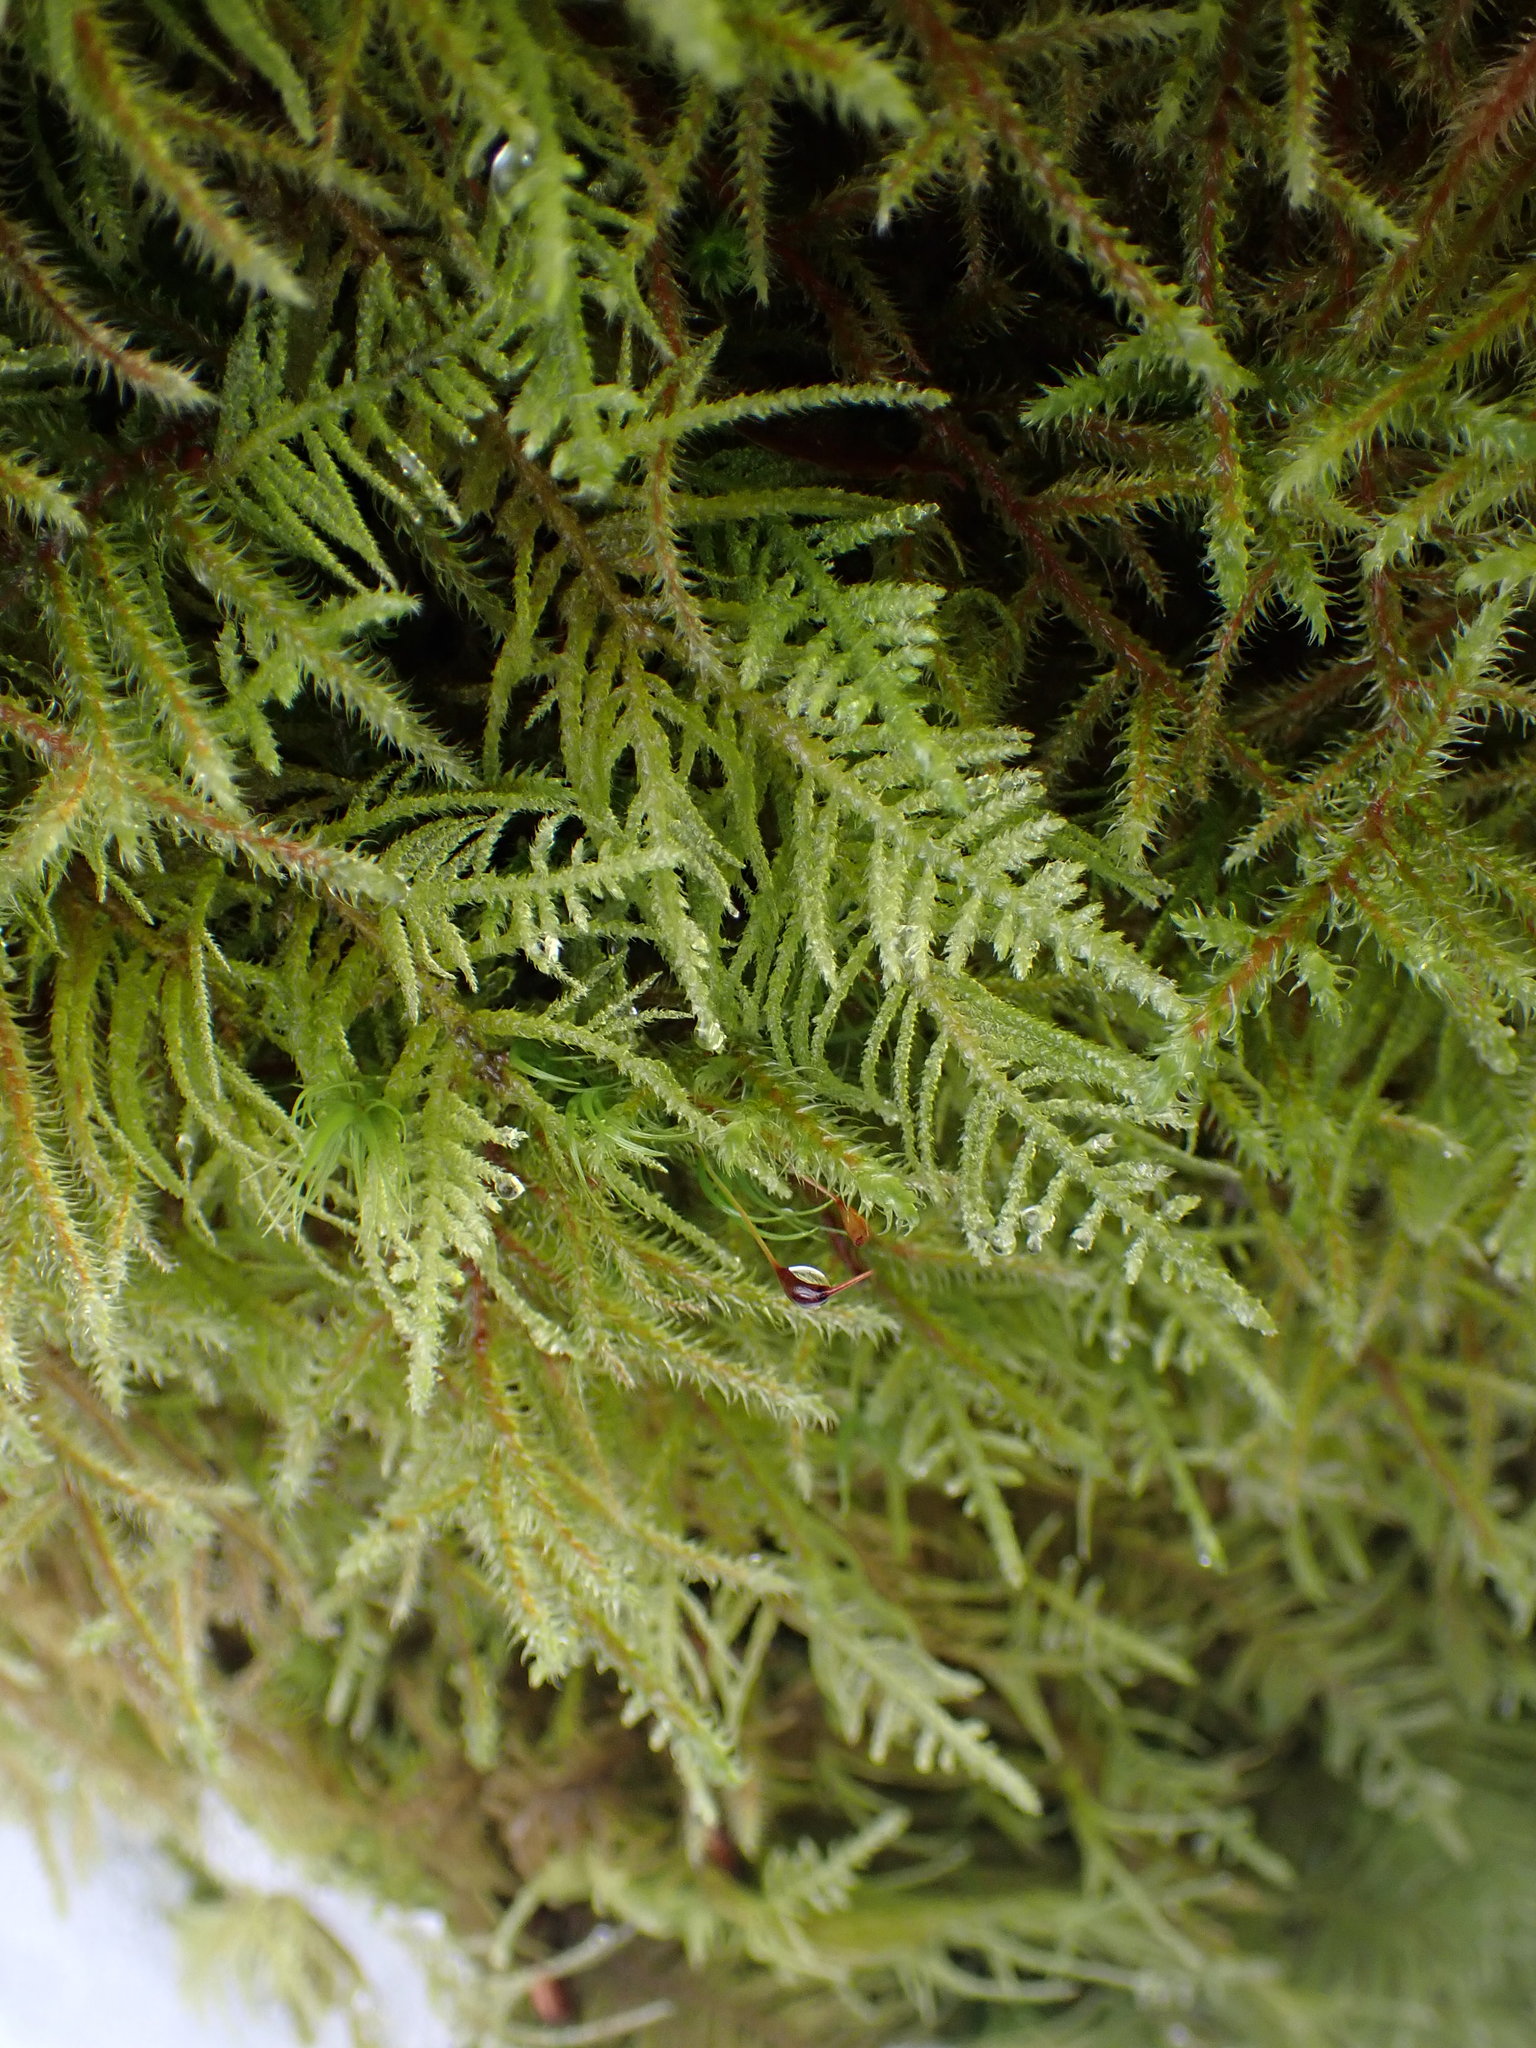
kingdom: Plantae
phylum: Bryophyta
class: Bryopsida
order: Hypnales
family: Brachytheciaceae
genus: Kindbergia
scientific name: Kindbergia oregana
